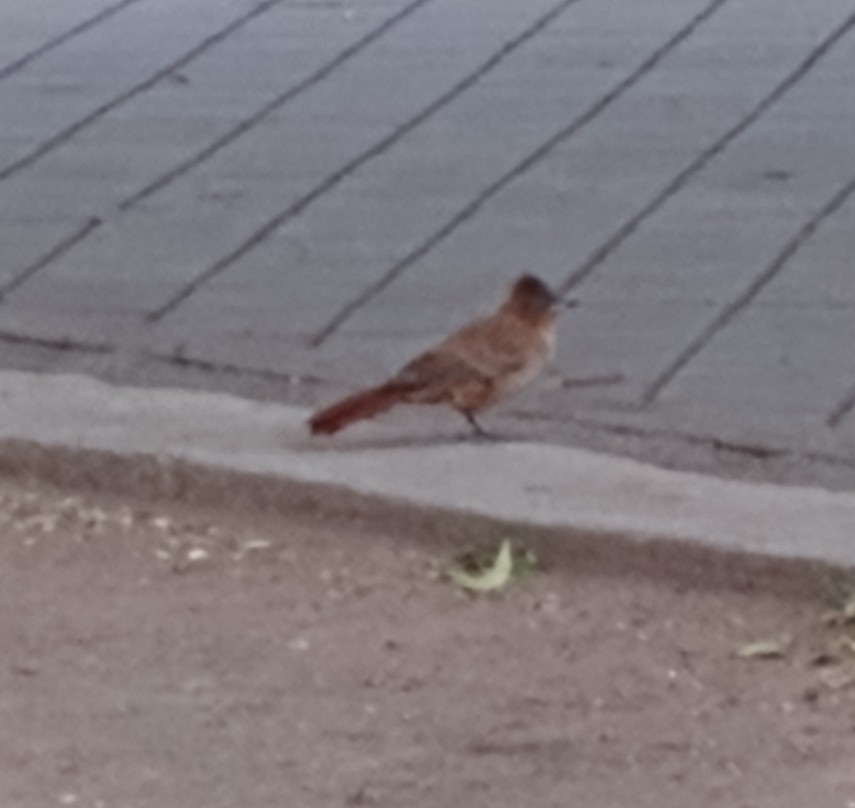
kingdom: Animalia
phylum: Chordata
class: Aves
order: Passeriformes
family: Furnariidae
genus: Pseudoseisura
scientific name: Pseudoseisura lophotes
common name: Brown cacholote
